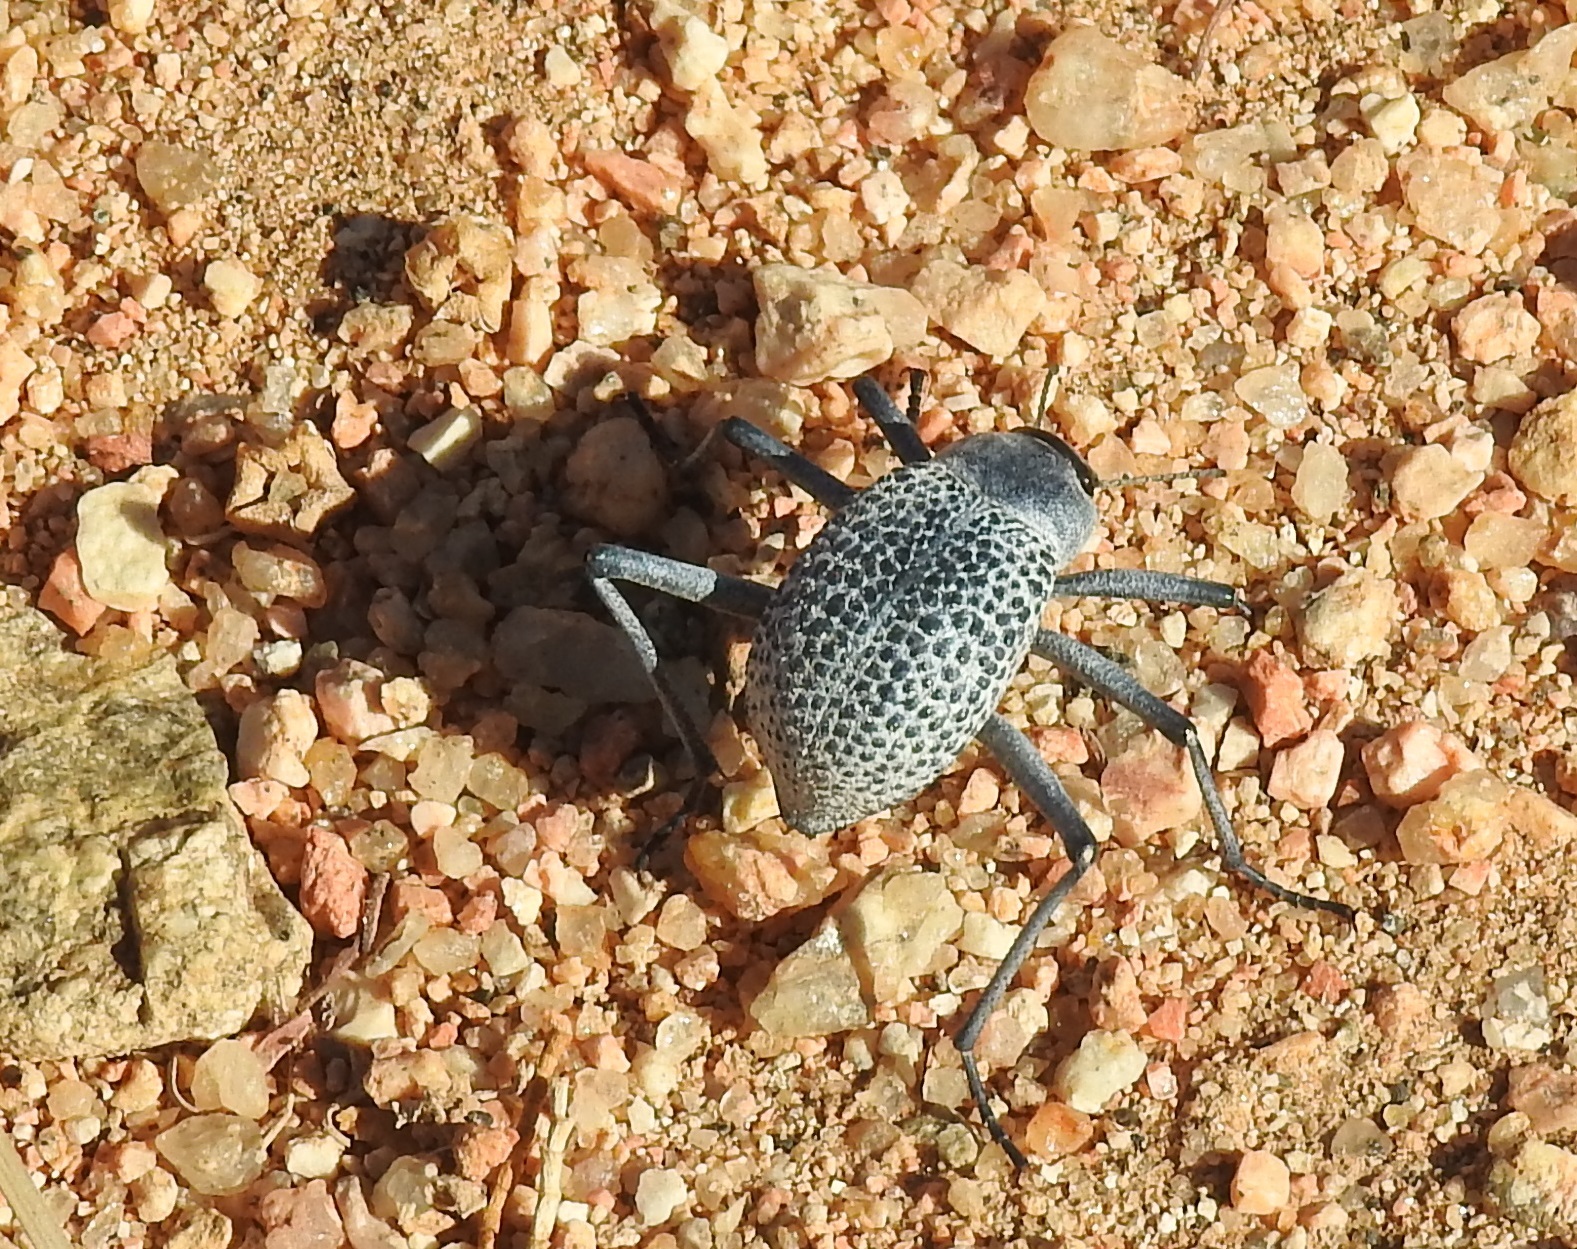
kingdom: Animalia
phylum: Arthropoda
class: Insecta
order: Coleoptera
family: Tenebrionidae
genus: Adesmia
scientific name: Adesmia
